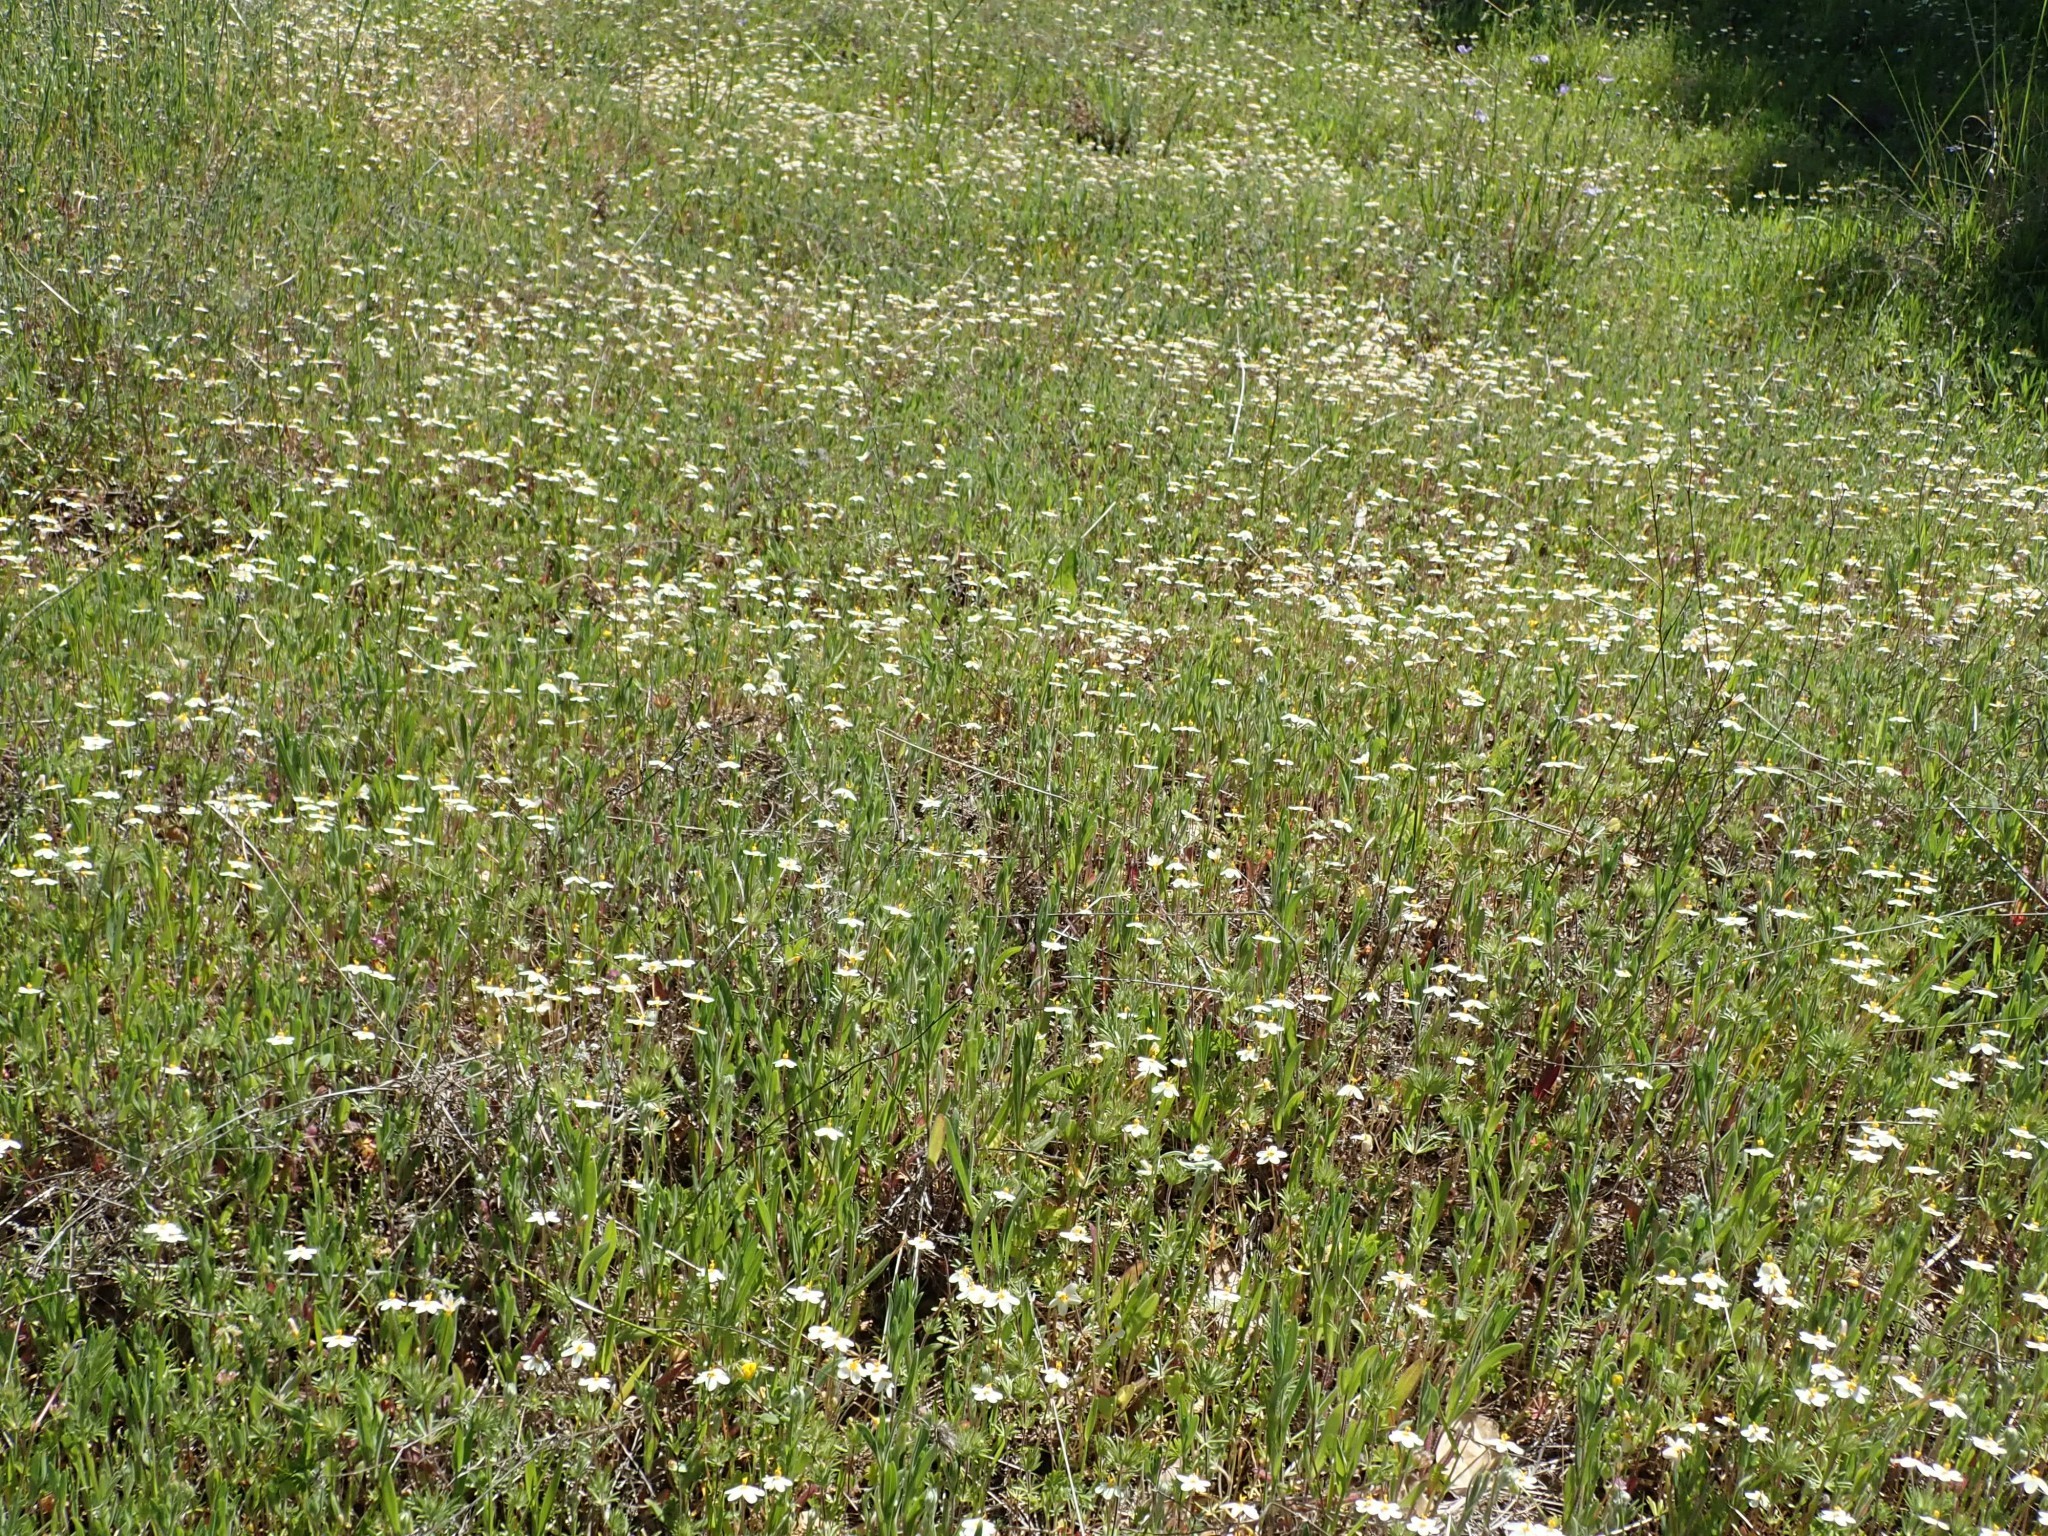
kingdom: Plantae
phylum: Tracheophyta
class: Magnoliopsida
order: Ericales
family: Polemoniaceae
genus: Leptosiphon
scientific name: Leptosiphon parviflorus
